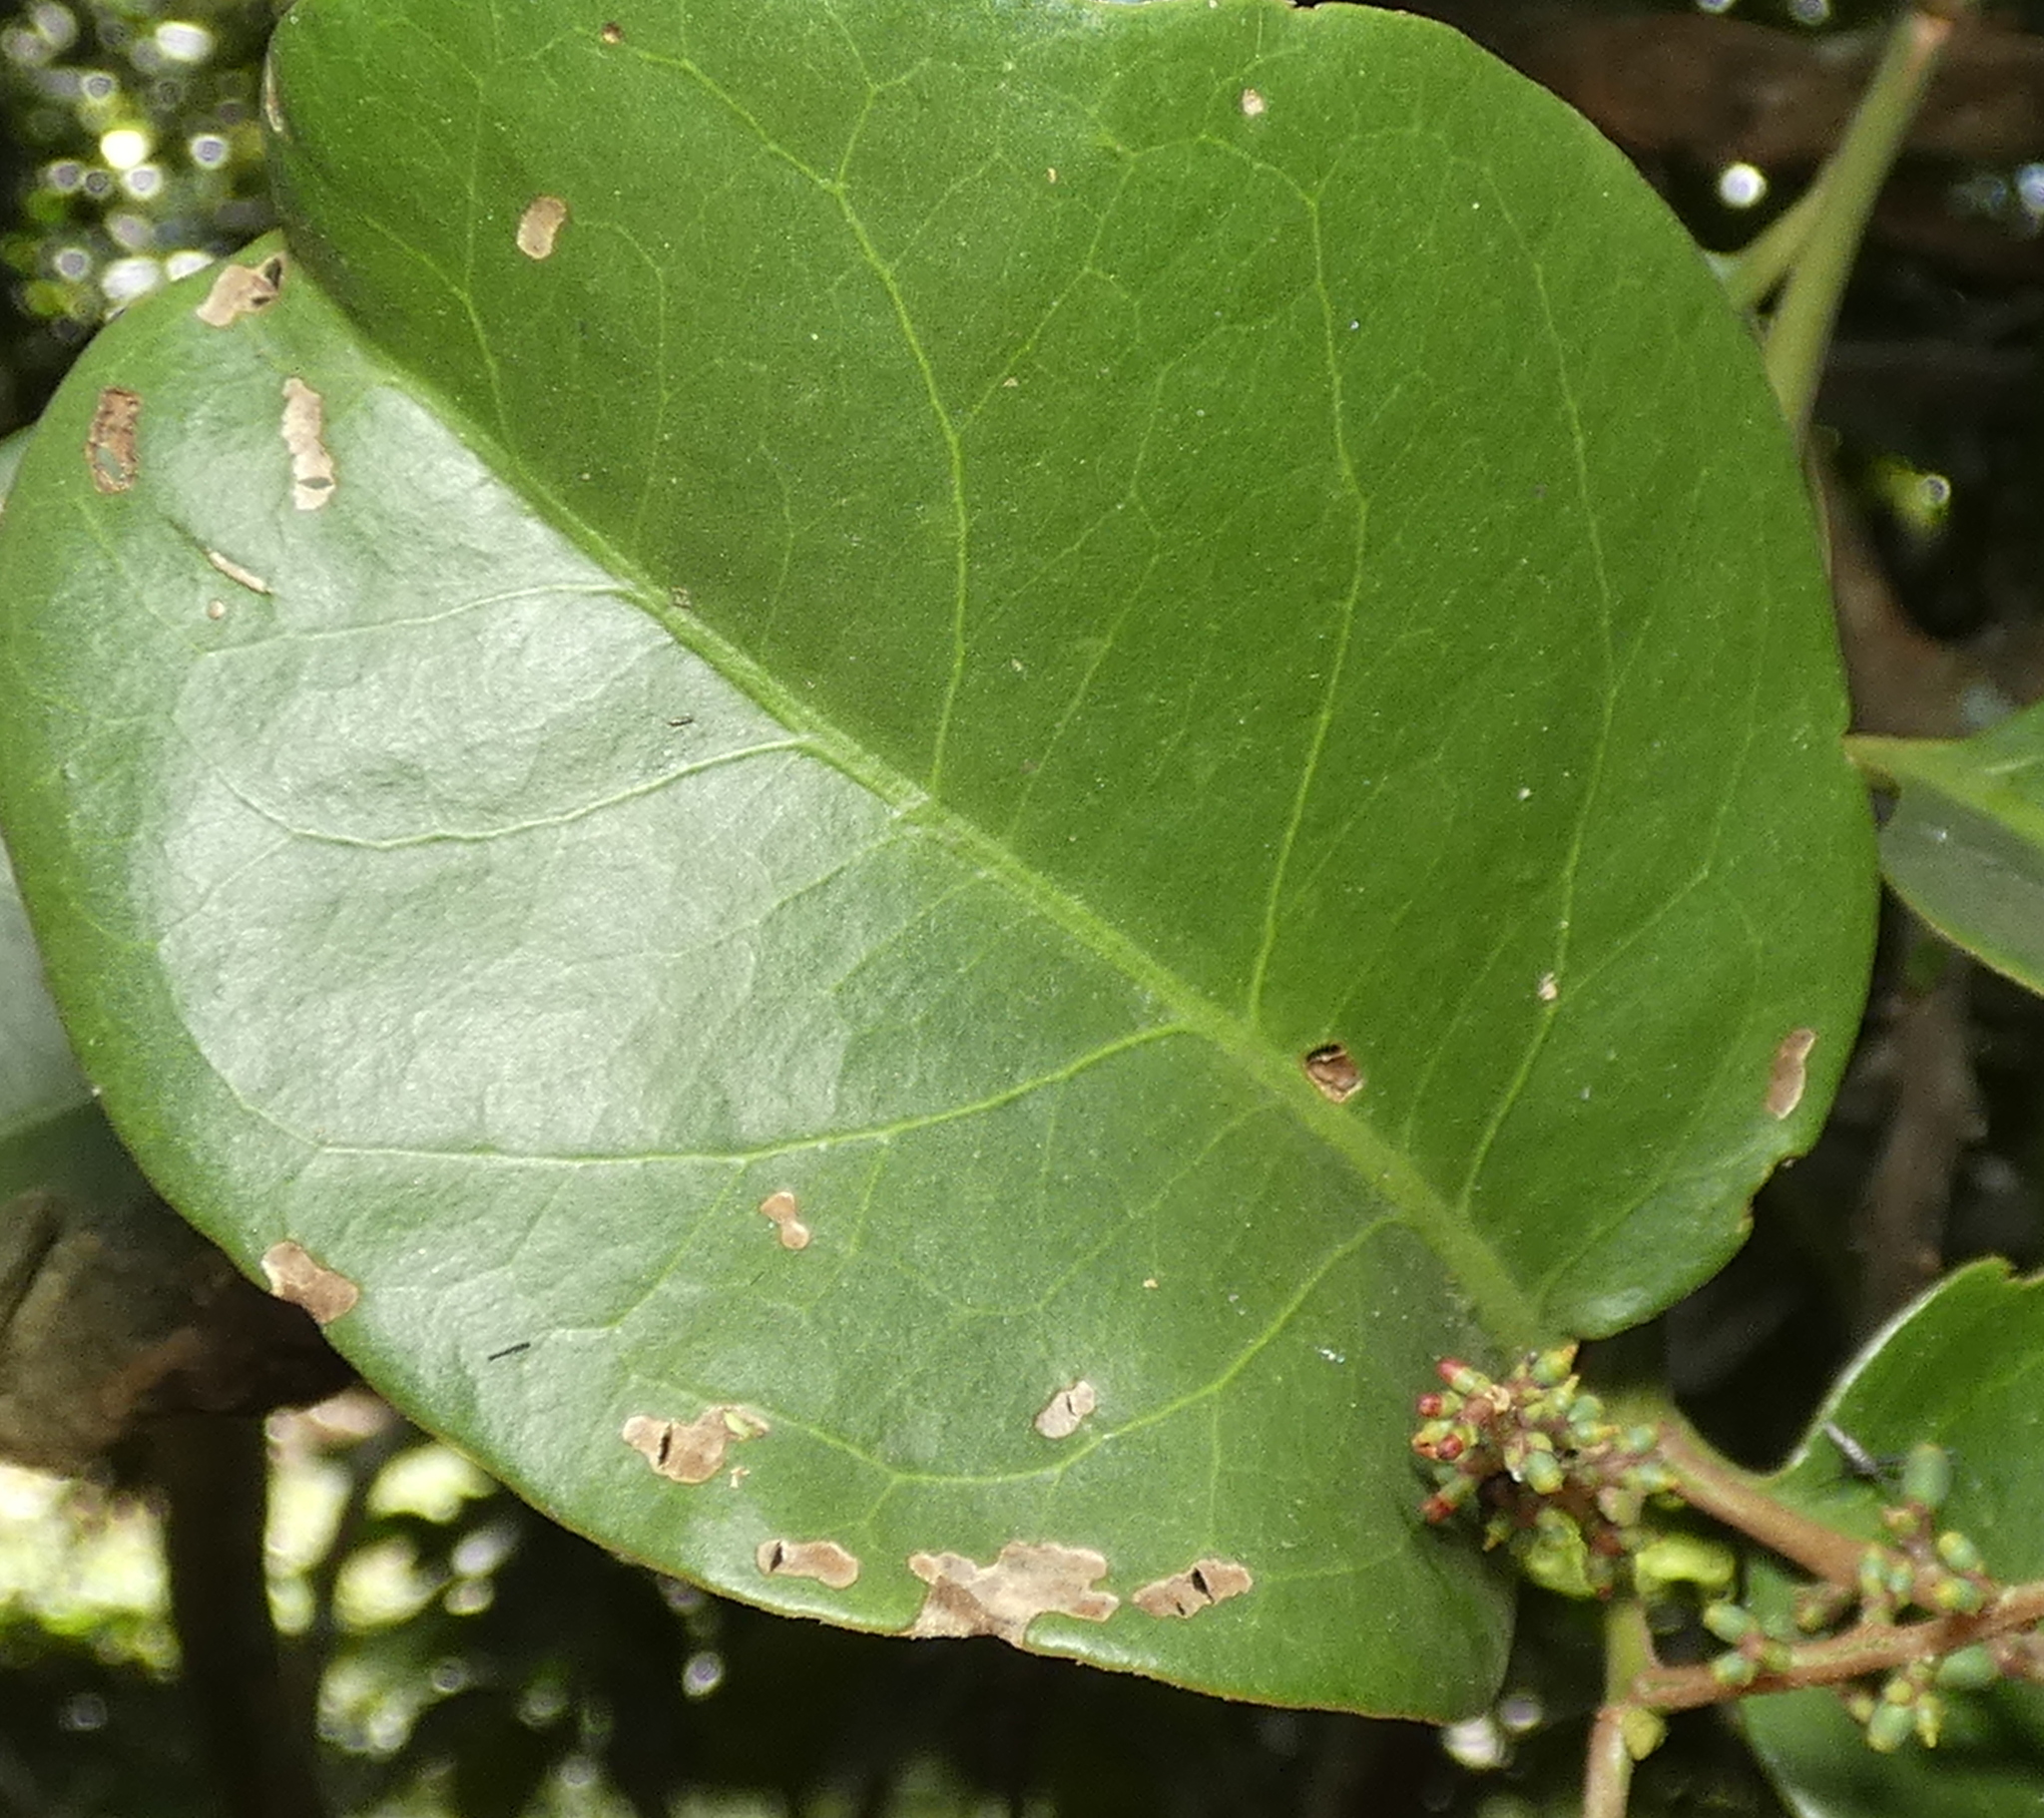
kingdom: Plantae
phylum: Tracheophyta
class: Magnoliopsida
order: Santalales
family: Loranthaceae
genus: Passovia
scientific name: Passovia pyrifolia
